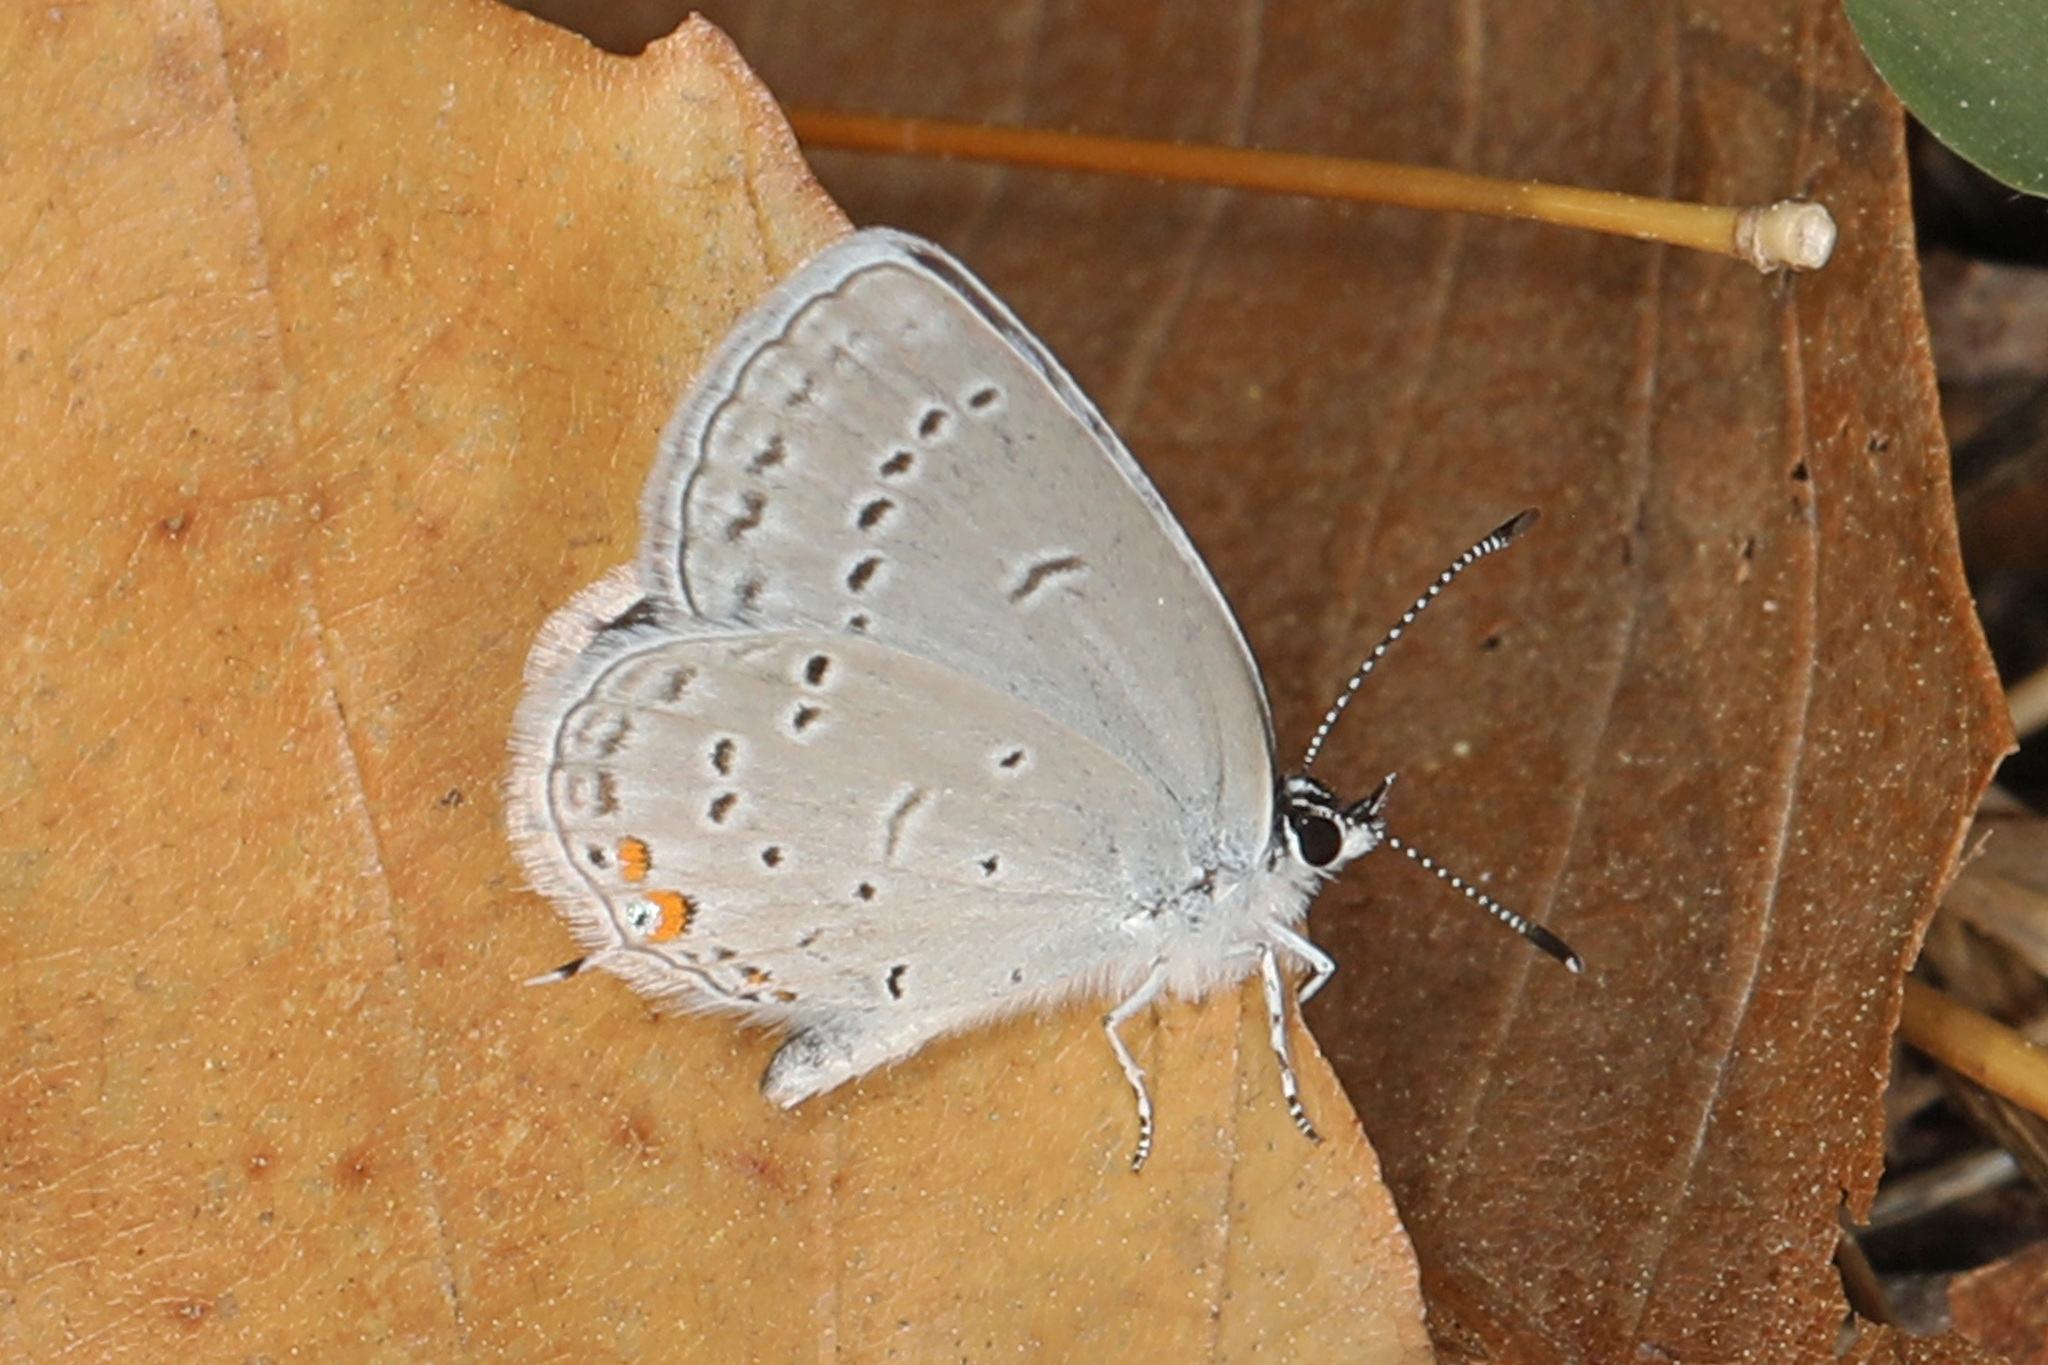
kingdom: Animalia
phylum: Arthropoda
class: Insecta
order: Lepidoptera
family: Lycaenidae
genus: Elkalyce
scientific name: Elkalyce comyntas
